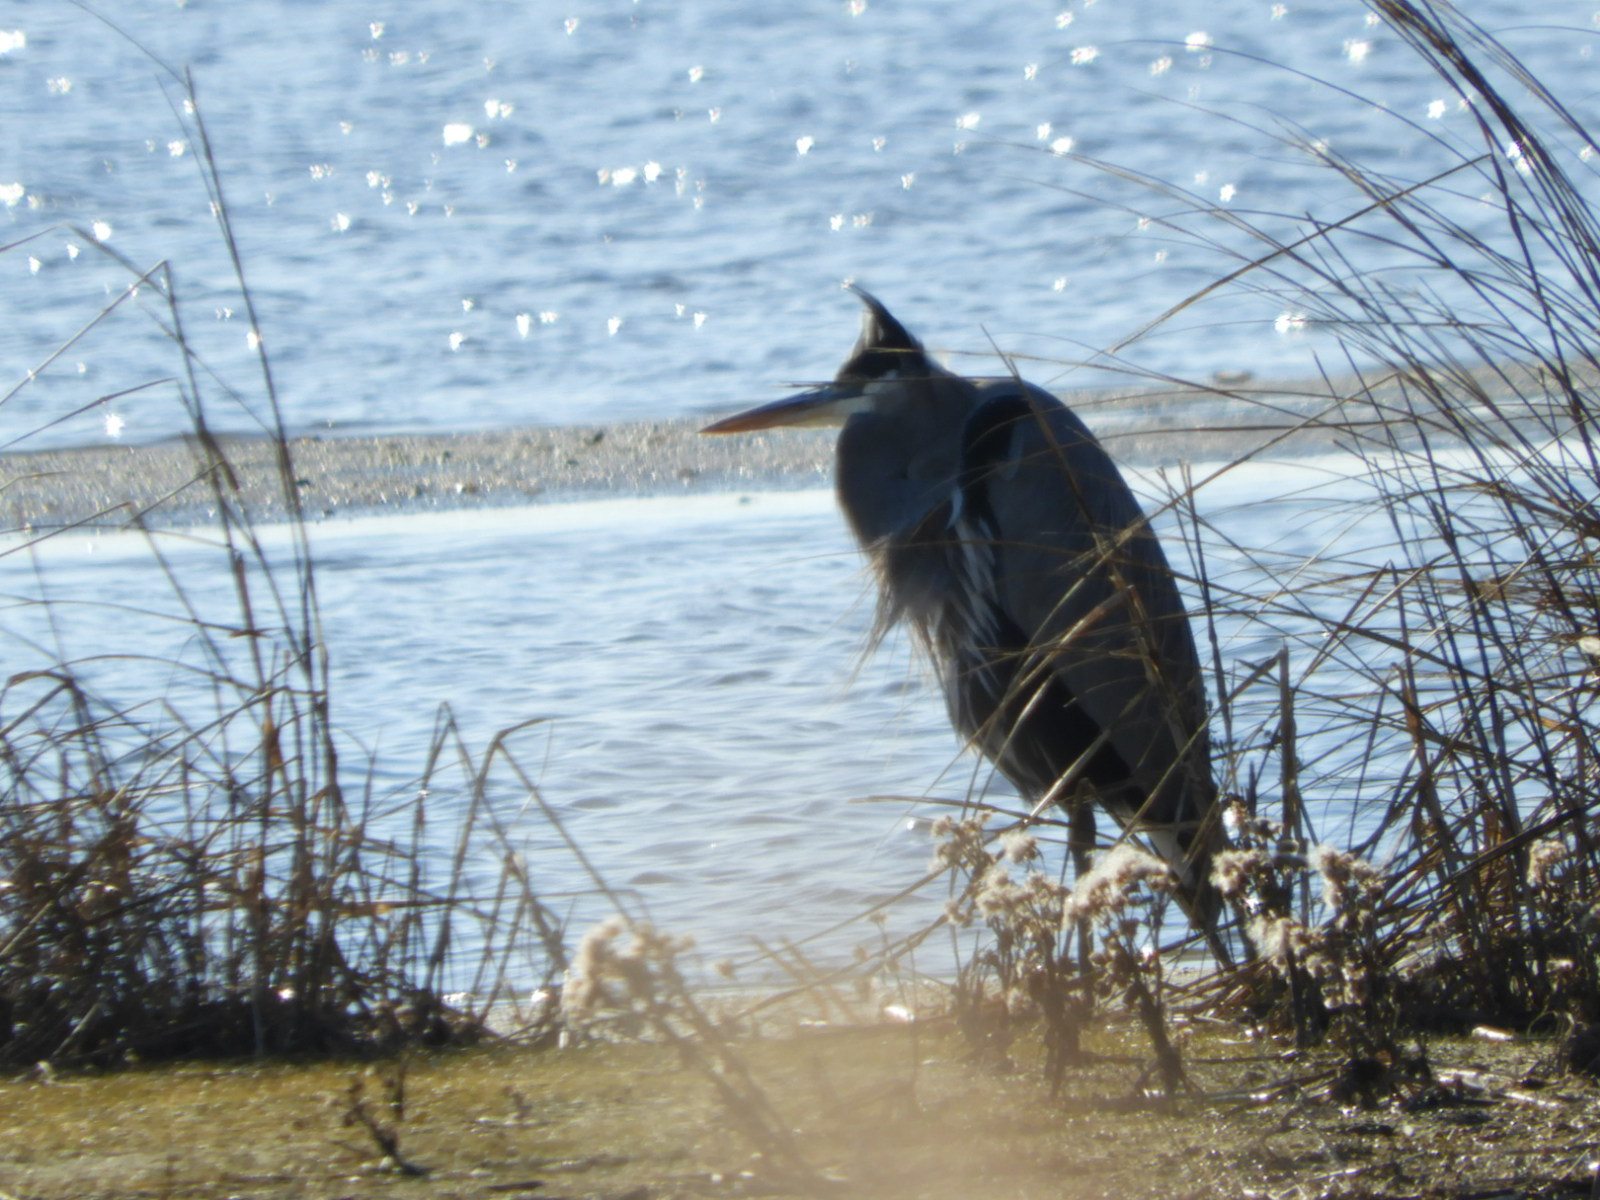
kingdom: Animalia
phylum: Chordata
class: Aves
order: Pelecaniformes
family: Ardeidae
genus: Ardea
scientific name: Ardea herodias
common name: Great blue heron
